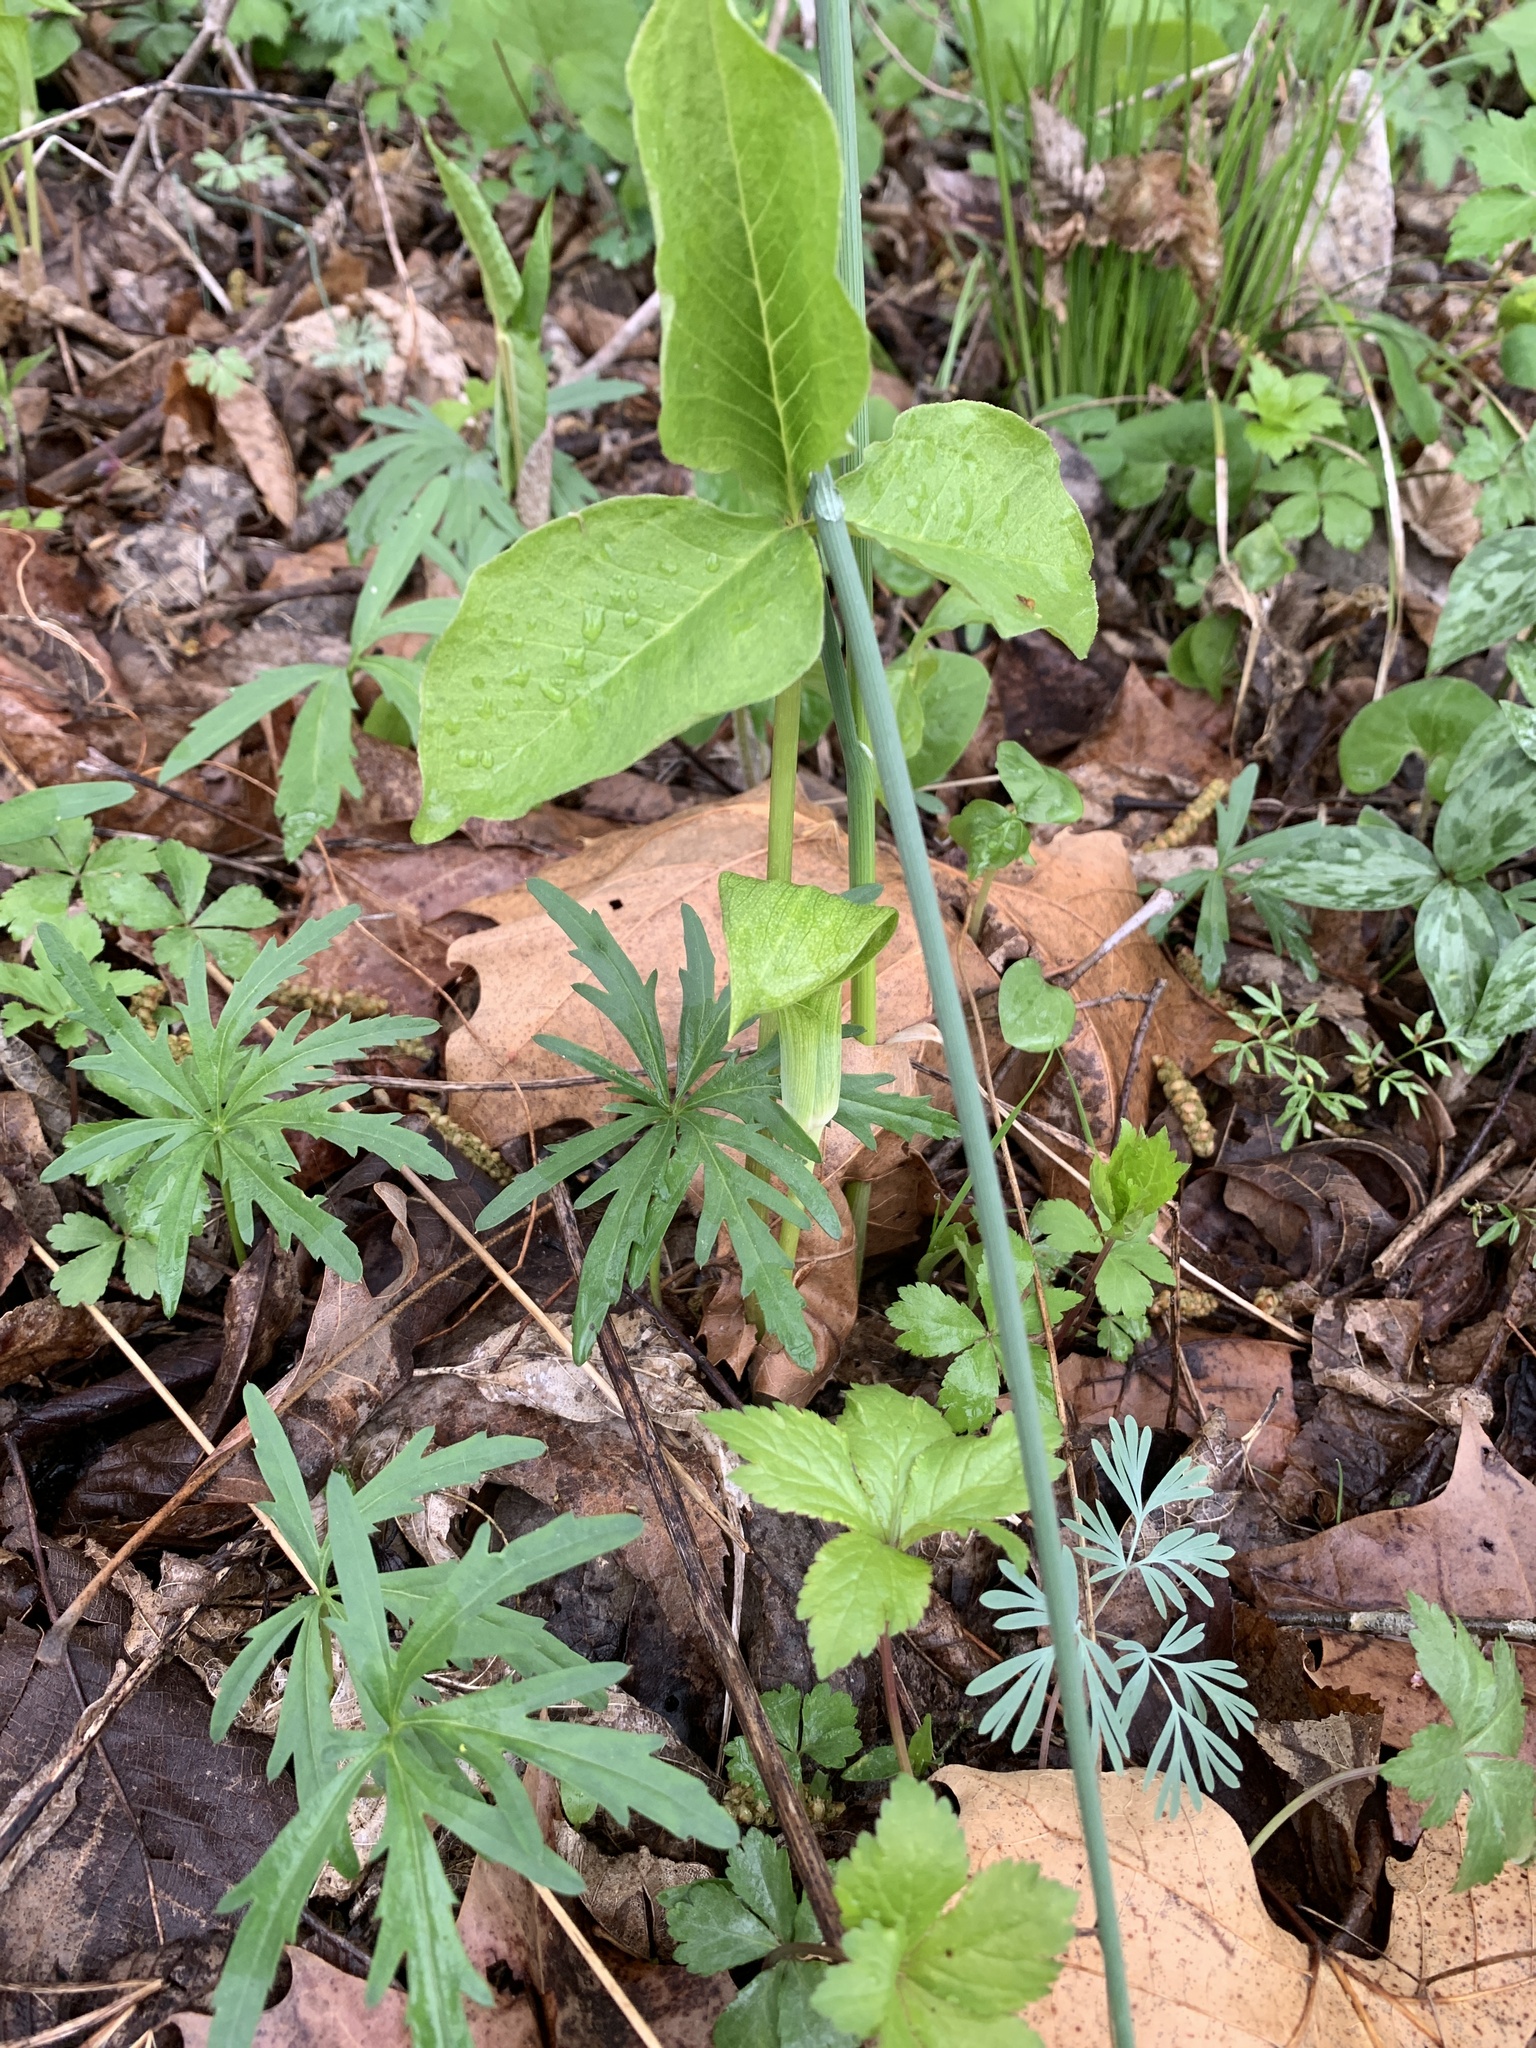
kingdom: Plantae
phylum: Tracheophyta
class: Liliopsida
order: Alismatales
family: Araceae
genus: Arisaema
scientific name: Arisaema triphyllum
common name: Jack-in-the-pulpit
